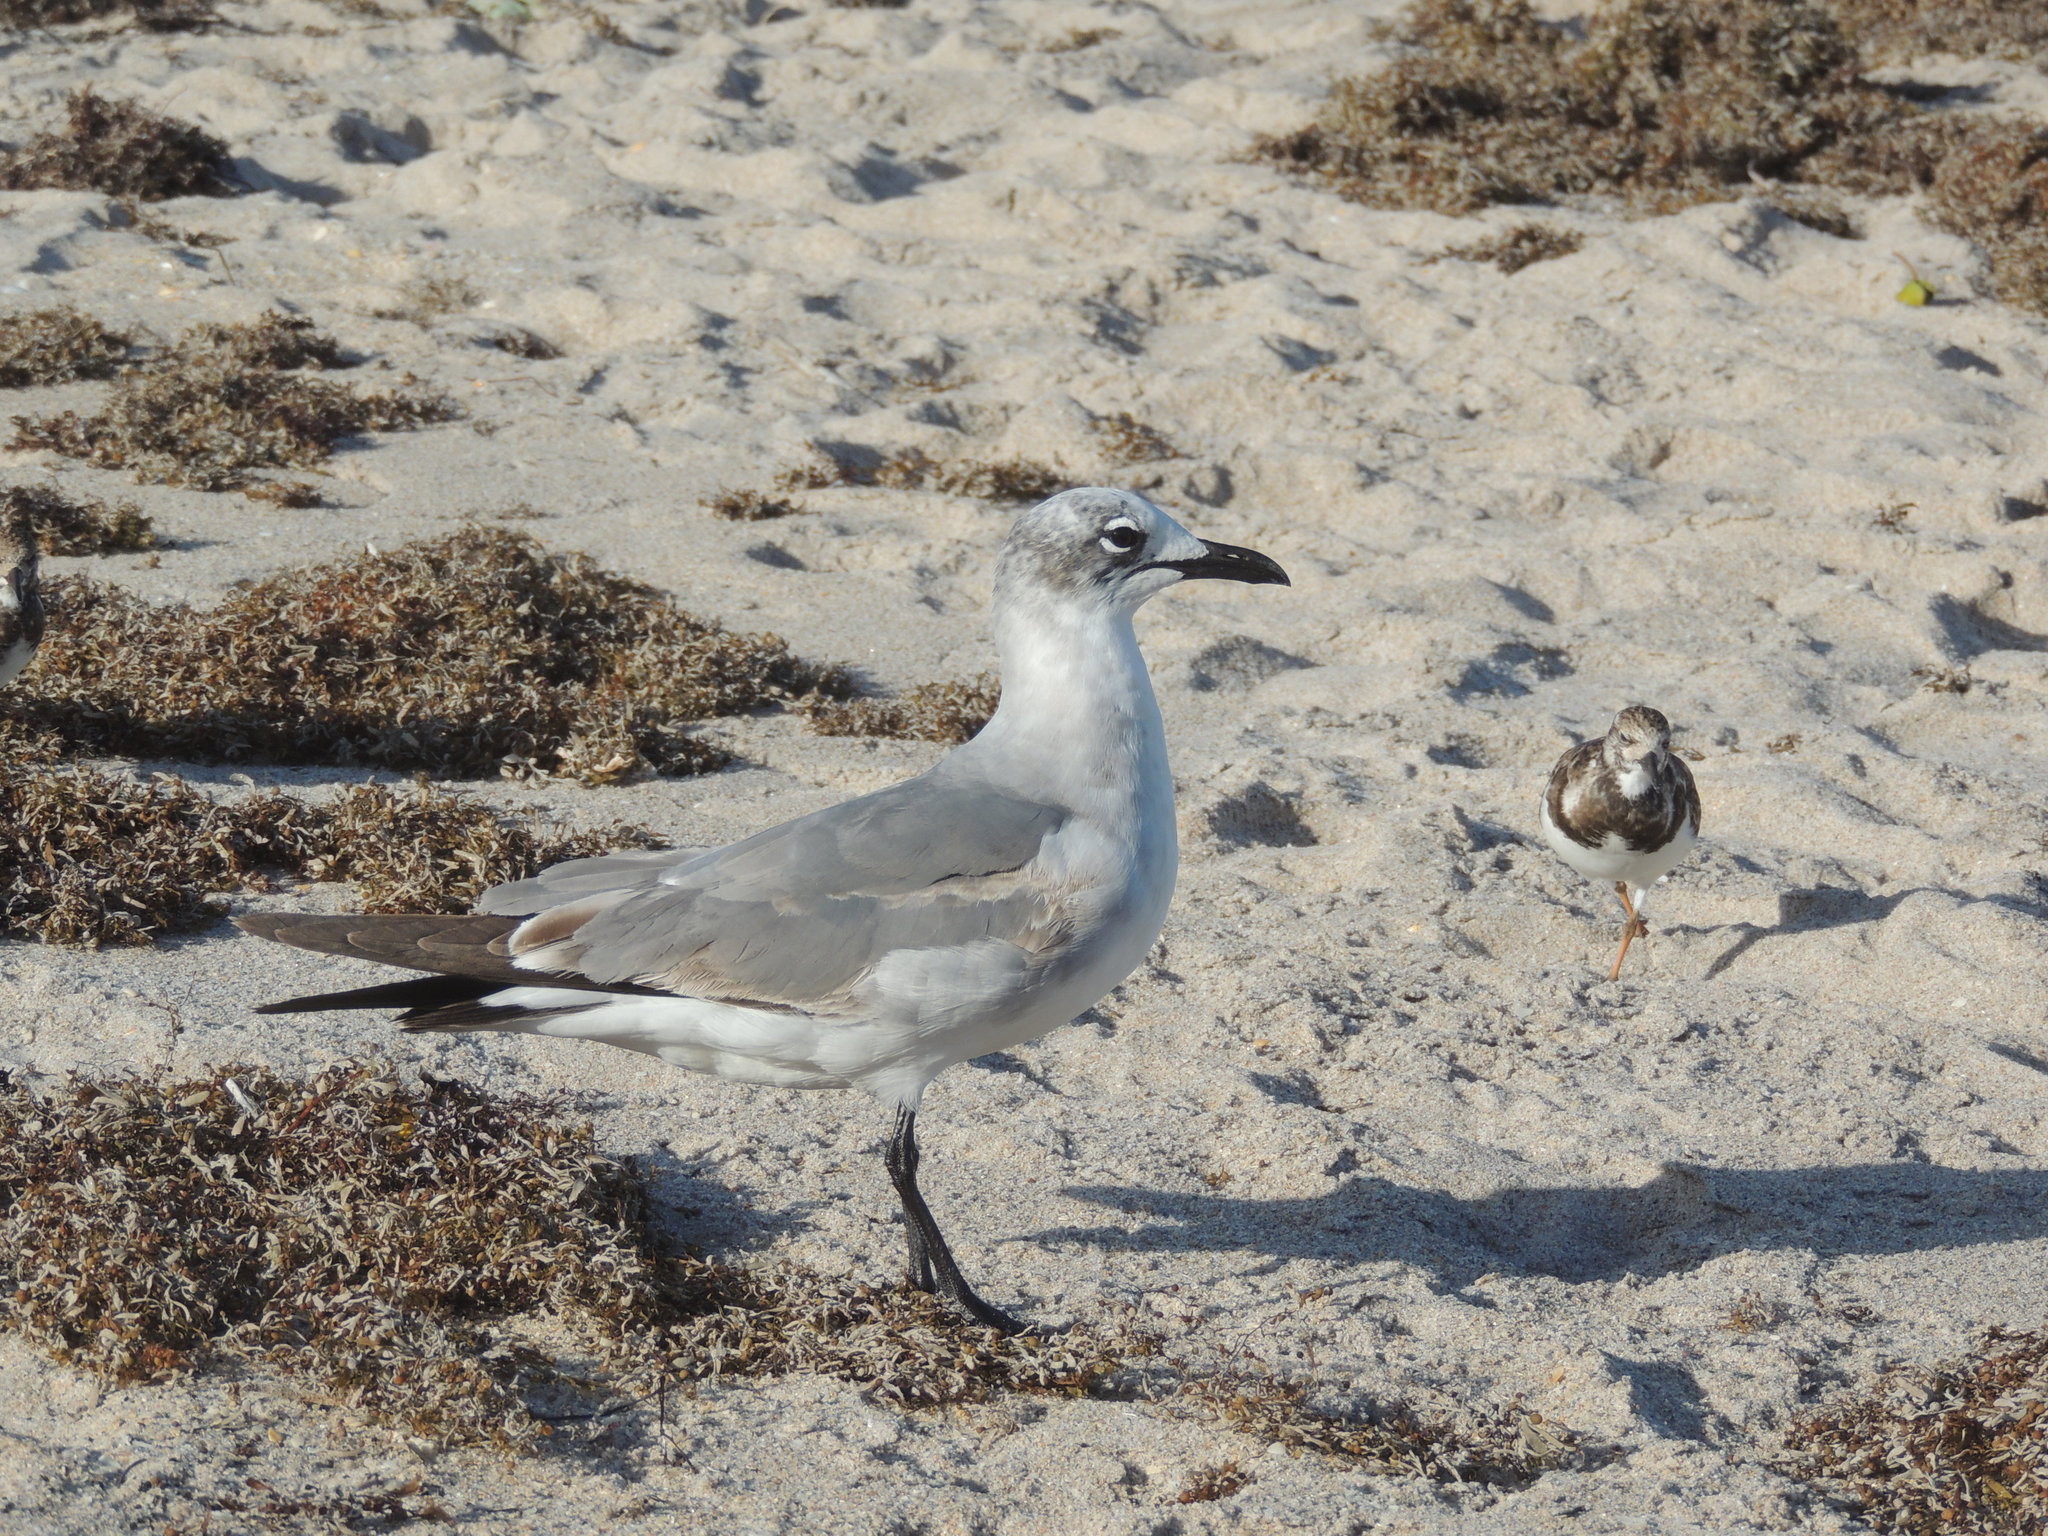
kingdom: Animalia
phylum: Chordata
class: Aves
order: Charadriiformes
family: Laridae
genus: Leucophaeus
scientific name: Leucophaeus atricilla
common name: Laughing gull
